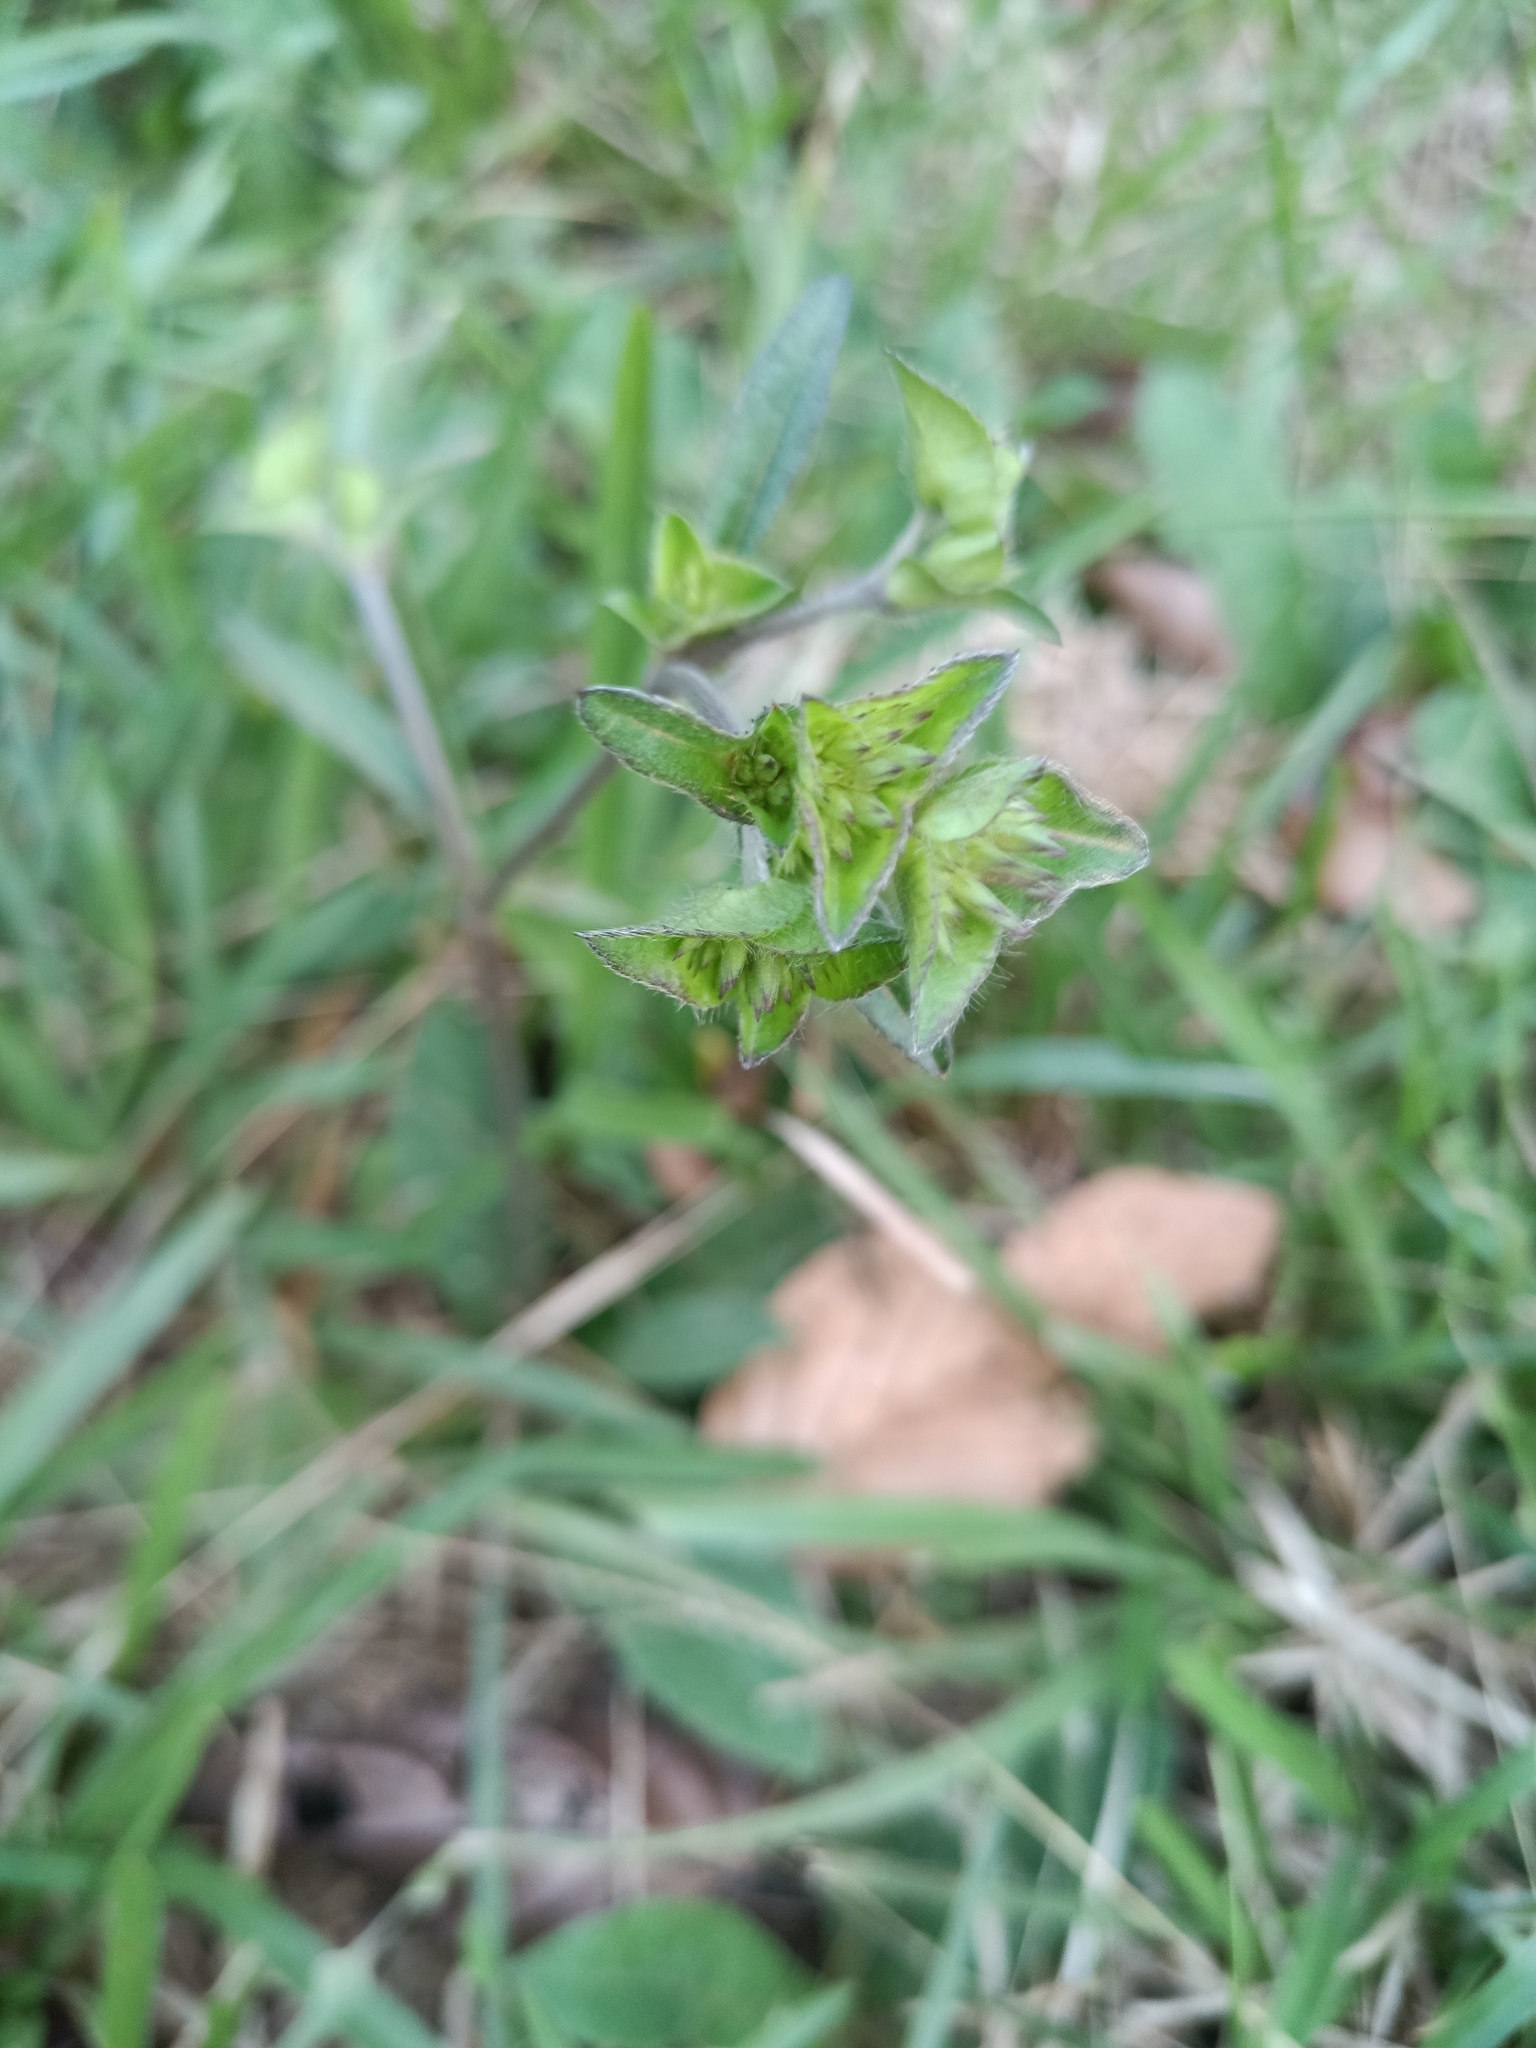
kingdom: Plantae
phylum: Tracheophyta
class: Magnoliopsida
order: Asterales
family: Asteraceae
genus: Elephantopus
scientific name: Elephantopus mollis
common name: Soft elephantsfoot
